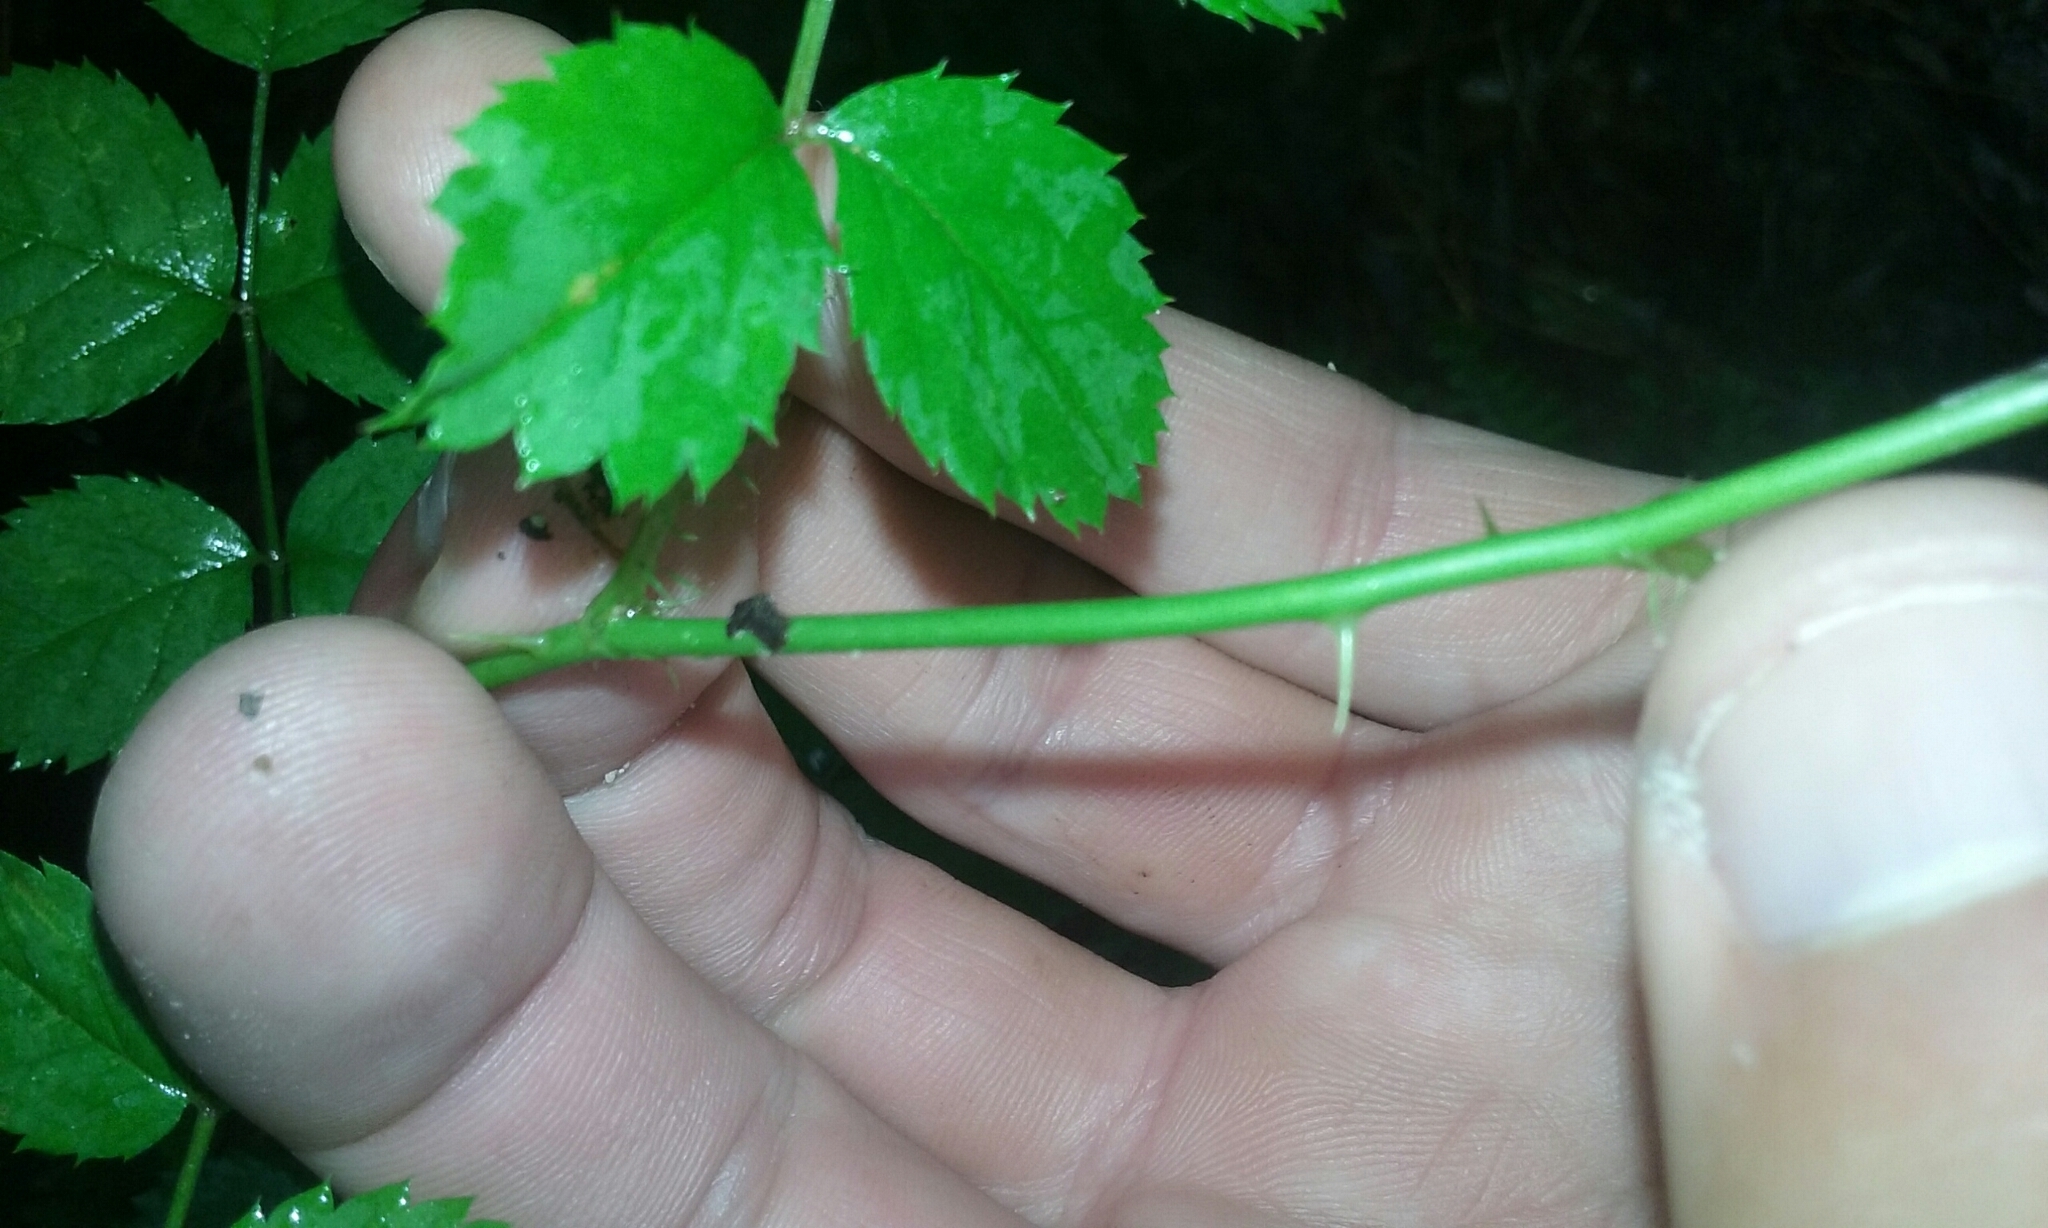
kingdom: Plantae
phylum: Tracheophyta
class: Magnoliopsida
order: Rosales
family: Rosaceae
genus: Rosa
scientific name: Rosa multiflora
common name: Multiflora rose
